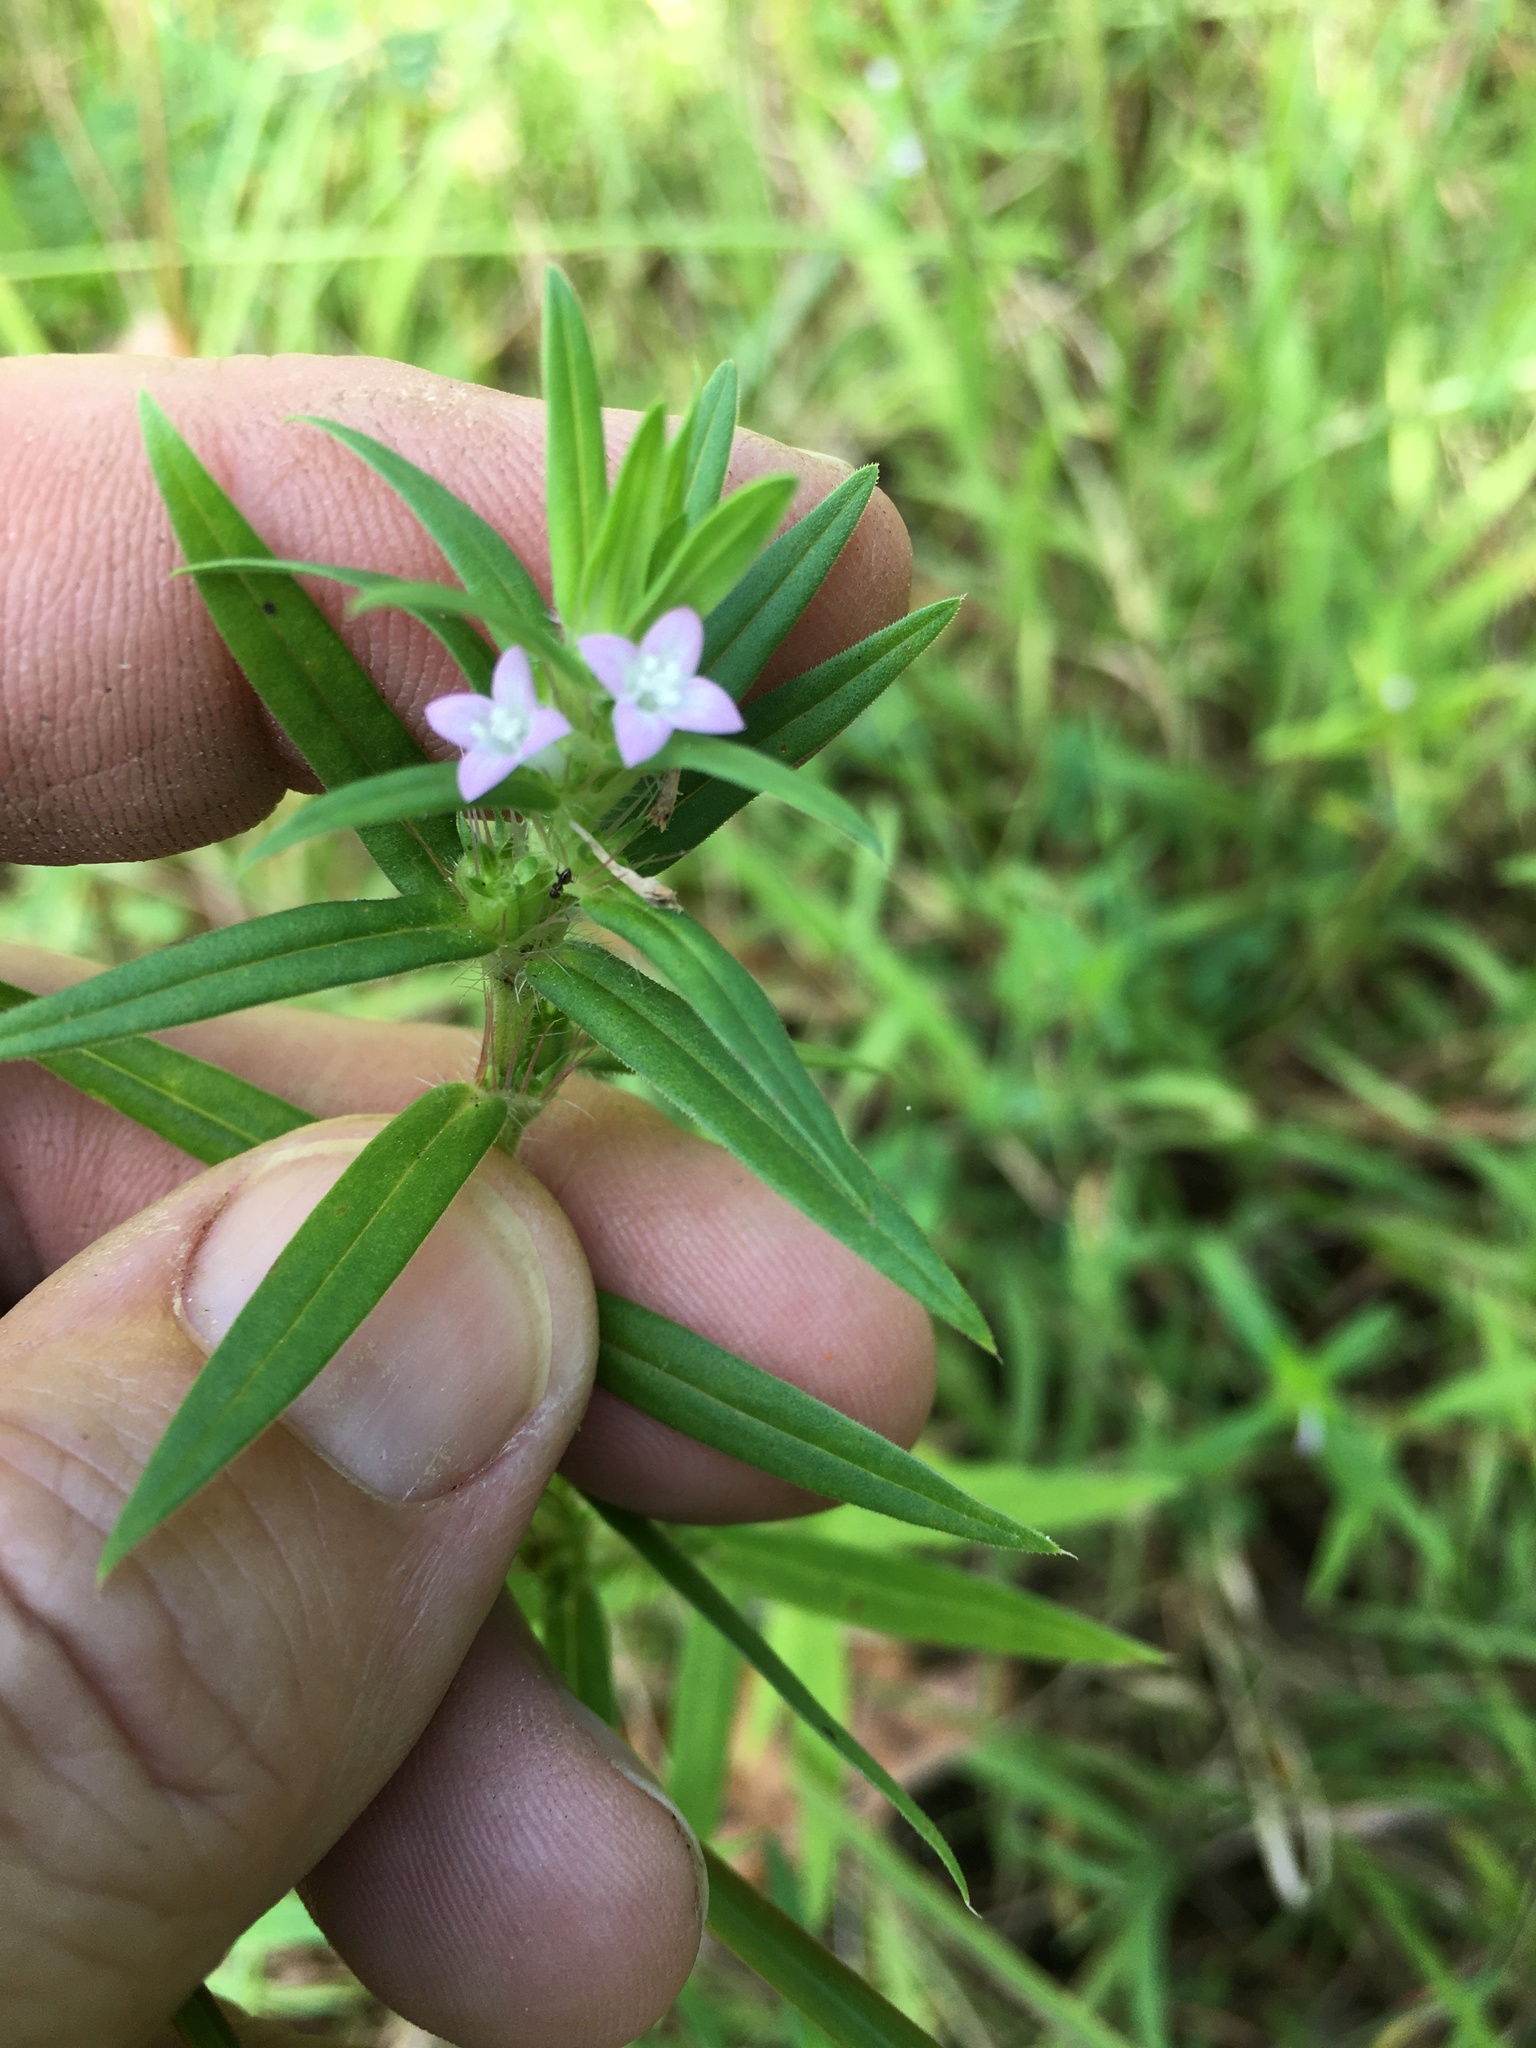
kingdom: Plantae
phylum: Tracheophyta
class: Magnoliopsida
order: Gentianales
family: Rubiaceae
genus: Hexasepalum
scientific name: Hexasepalum teres
